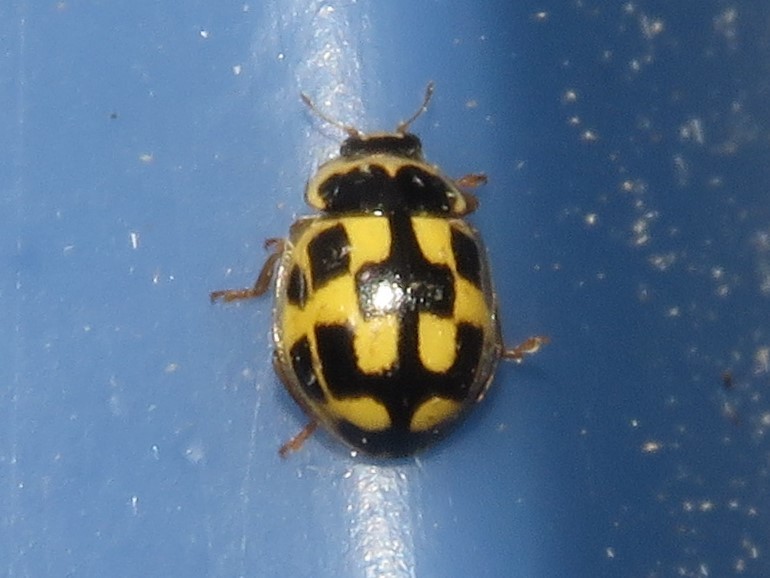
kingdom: Animalia
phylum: Arthropoda
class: Insecta
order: Coleoptera
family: Coccinellidae
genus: Propylaea
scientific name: Propylaea quatuordecimpunctata
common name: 14-spotted ladybird beetle
